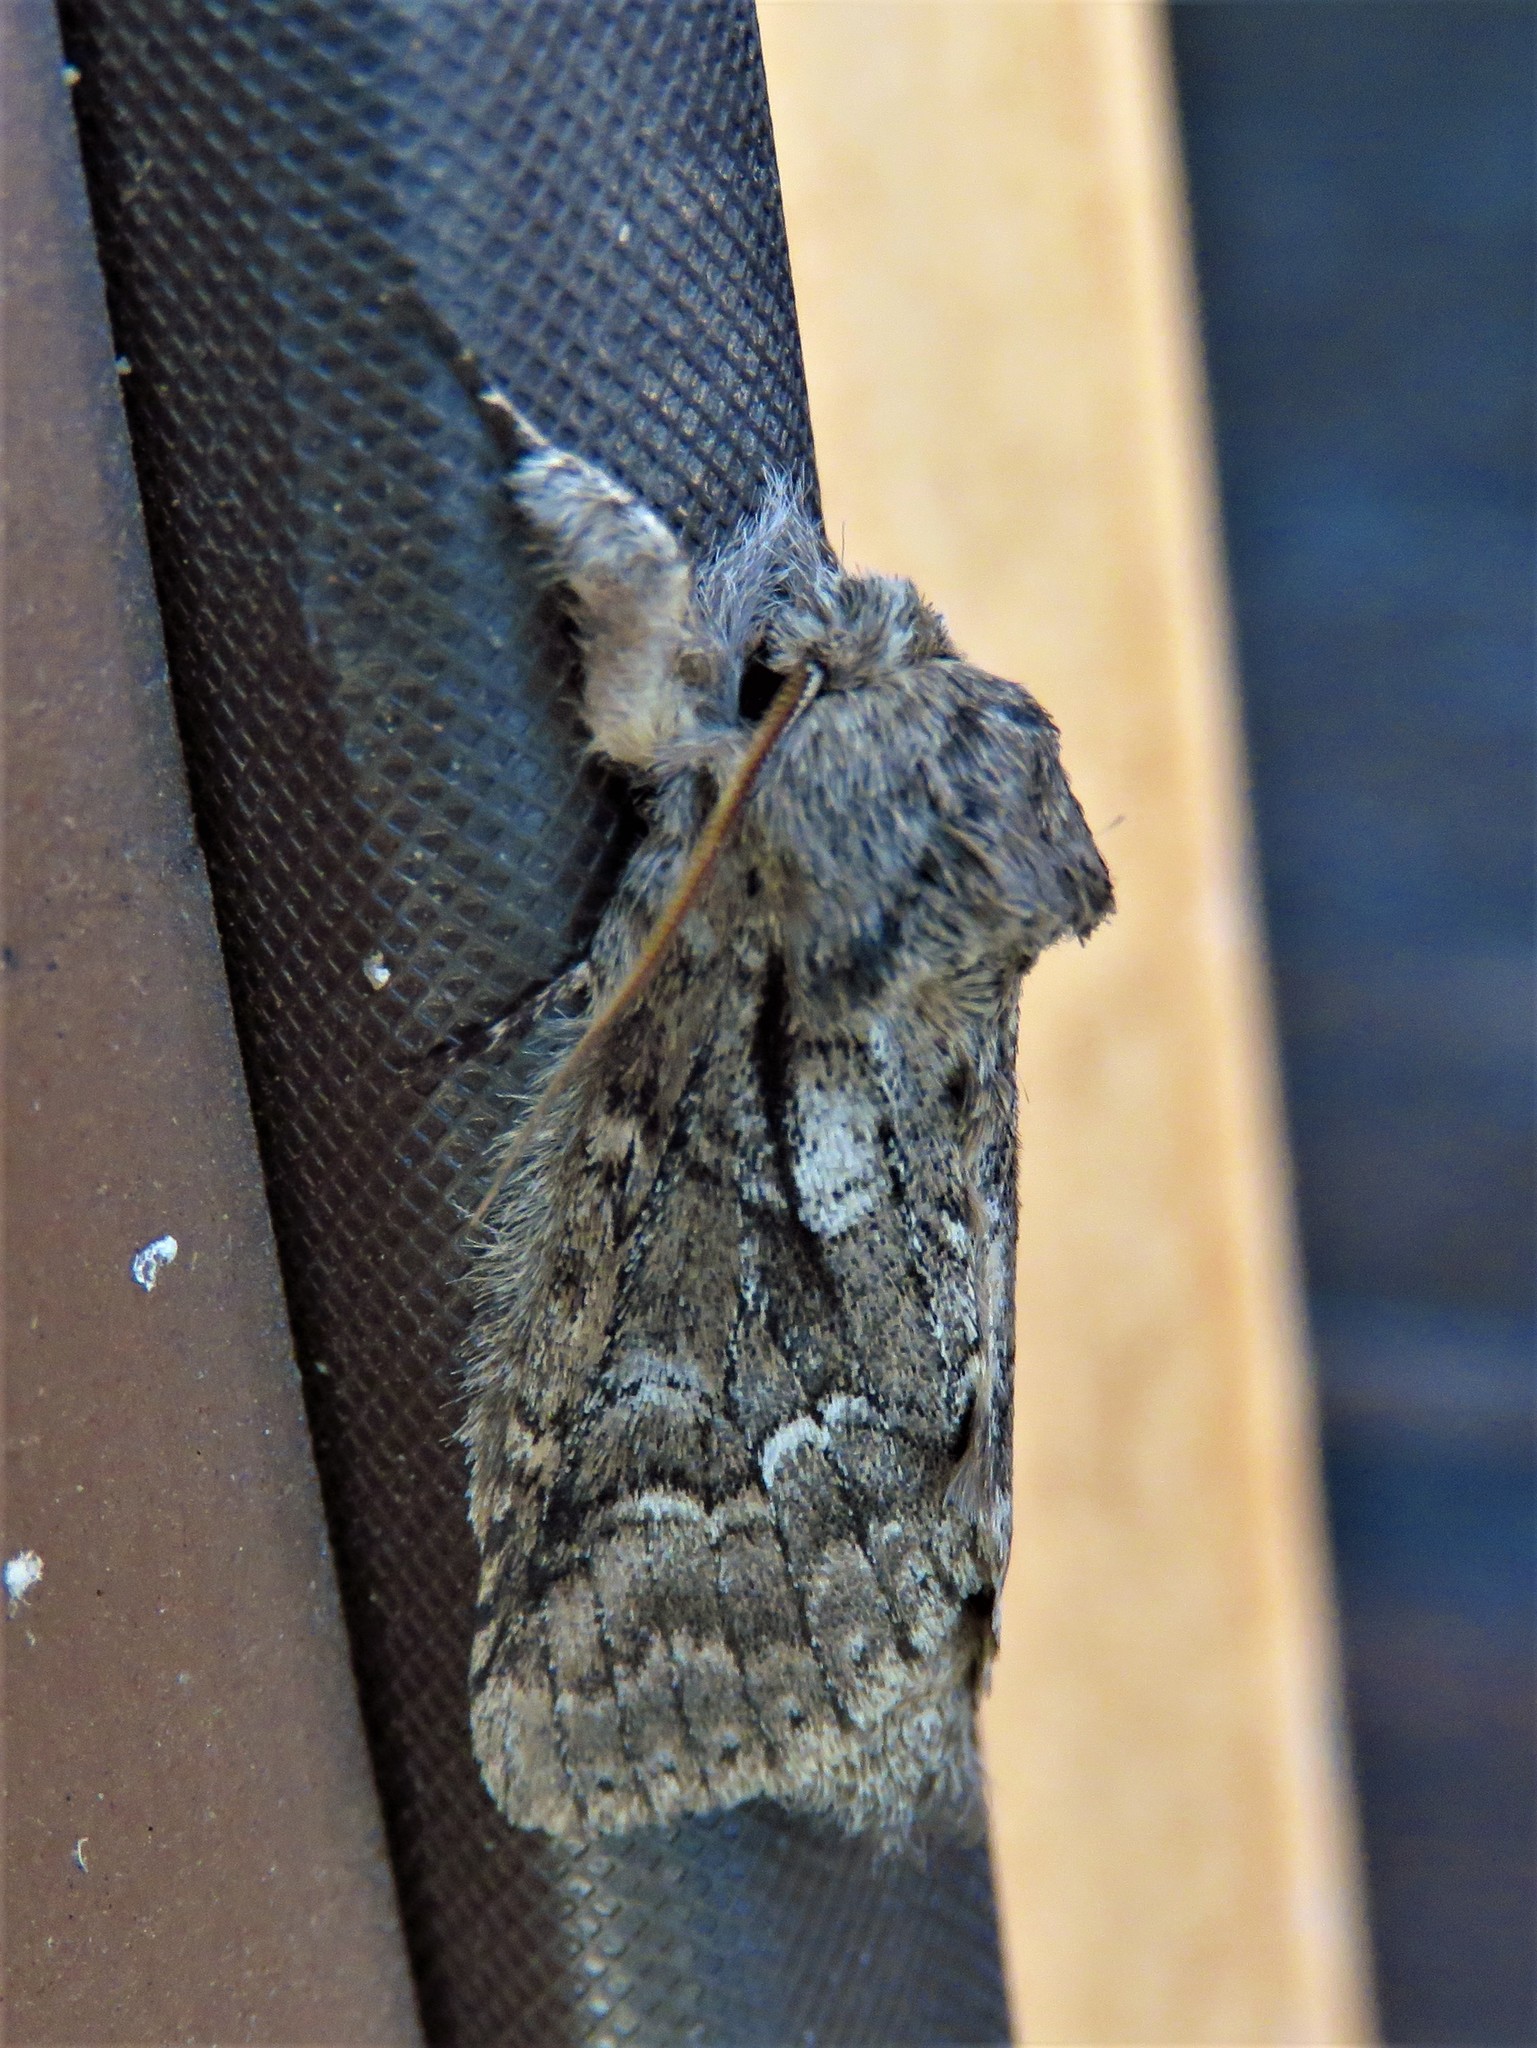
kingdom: Animalia
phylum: Arthropoda
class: Insecta
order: Lepidoptera
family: Notodontidae
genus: Lochmaeus
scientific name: Lochmaeus bilineata
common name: Double-lined prominent
